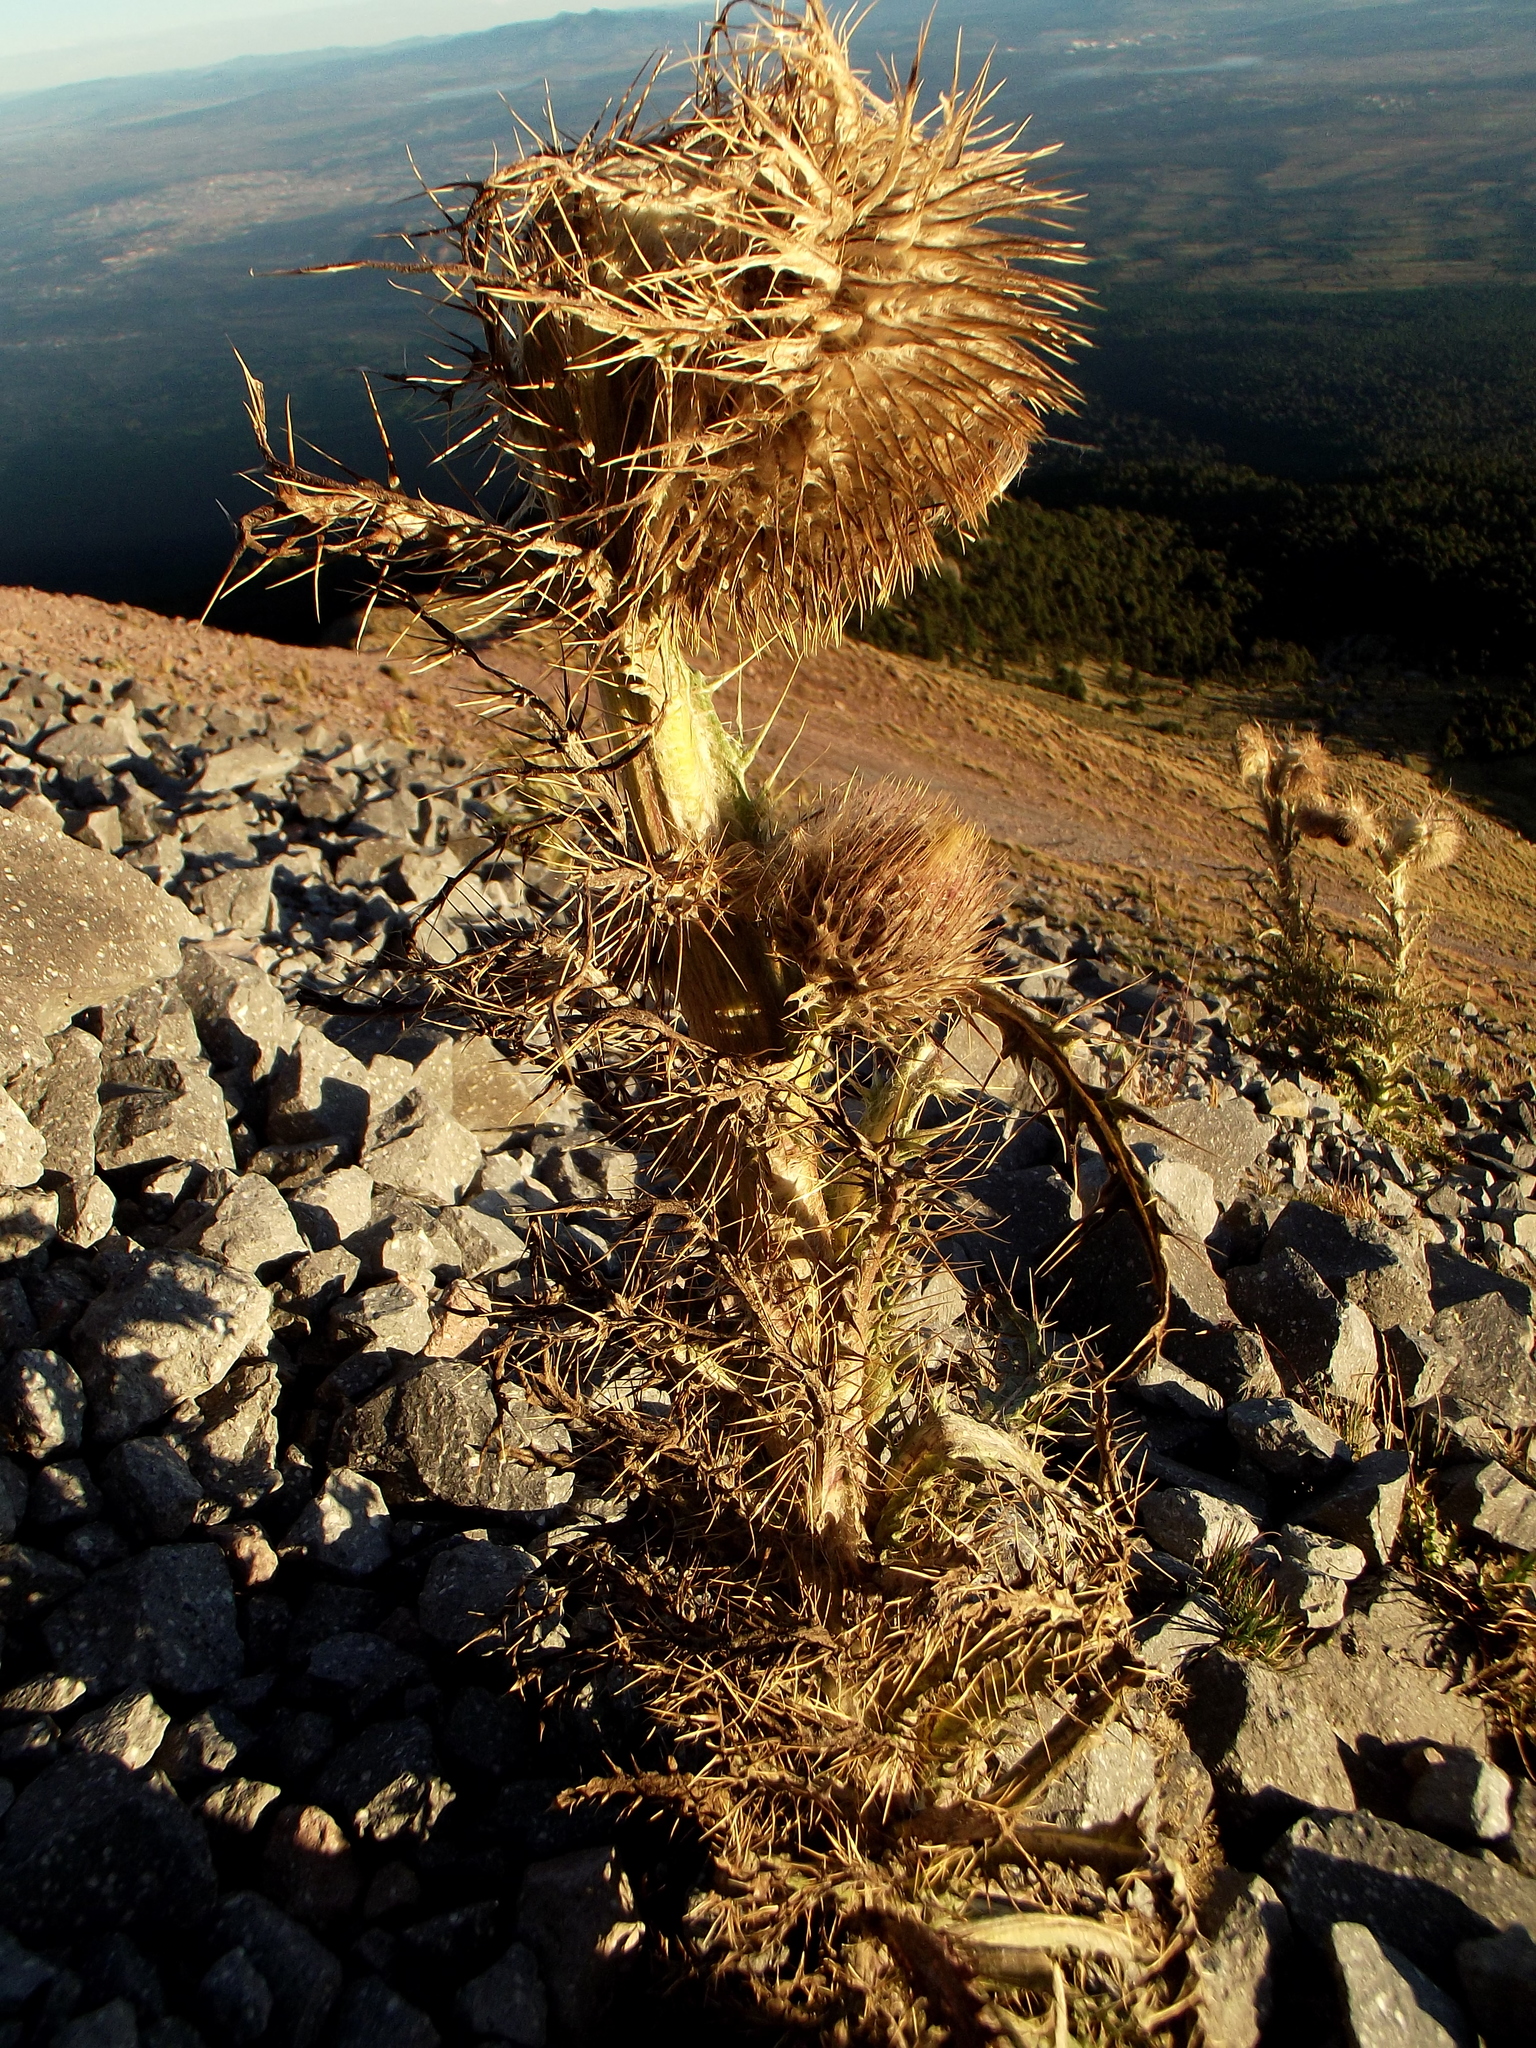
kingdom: Plantae
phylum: Tracheophyta
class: Magnoliopsida
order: Asterales
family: Asteraceae
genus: Cirsium
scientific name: Cirsium nivale
